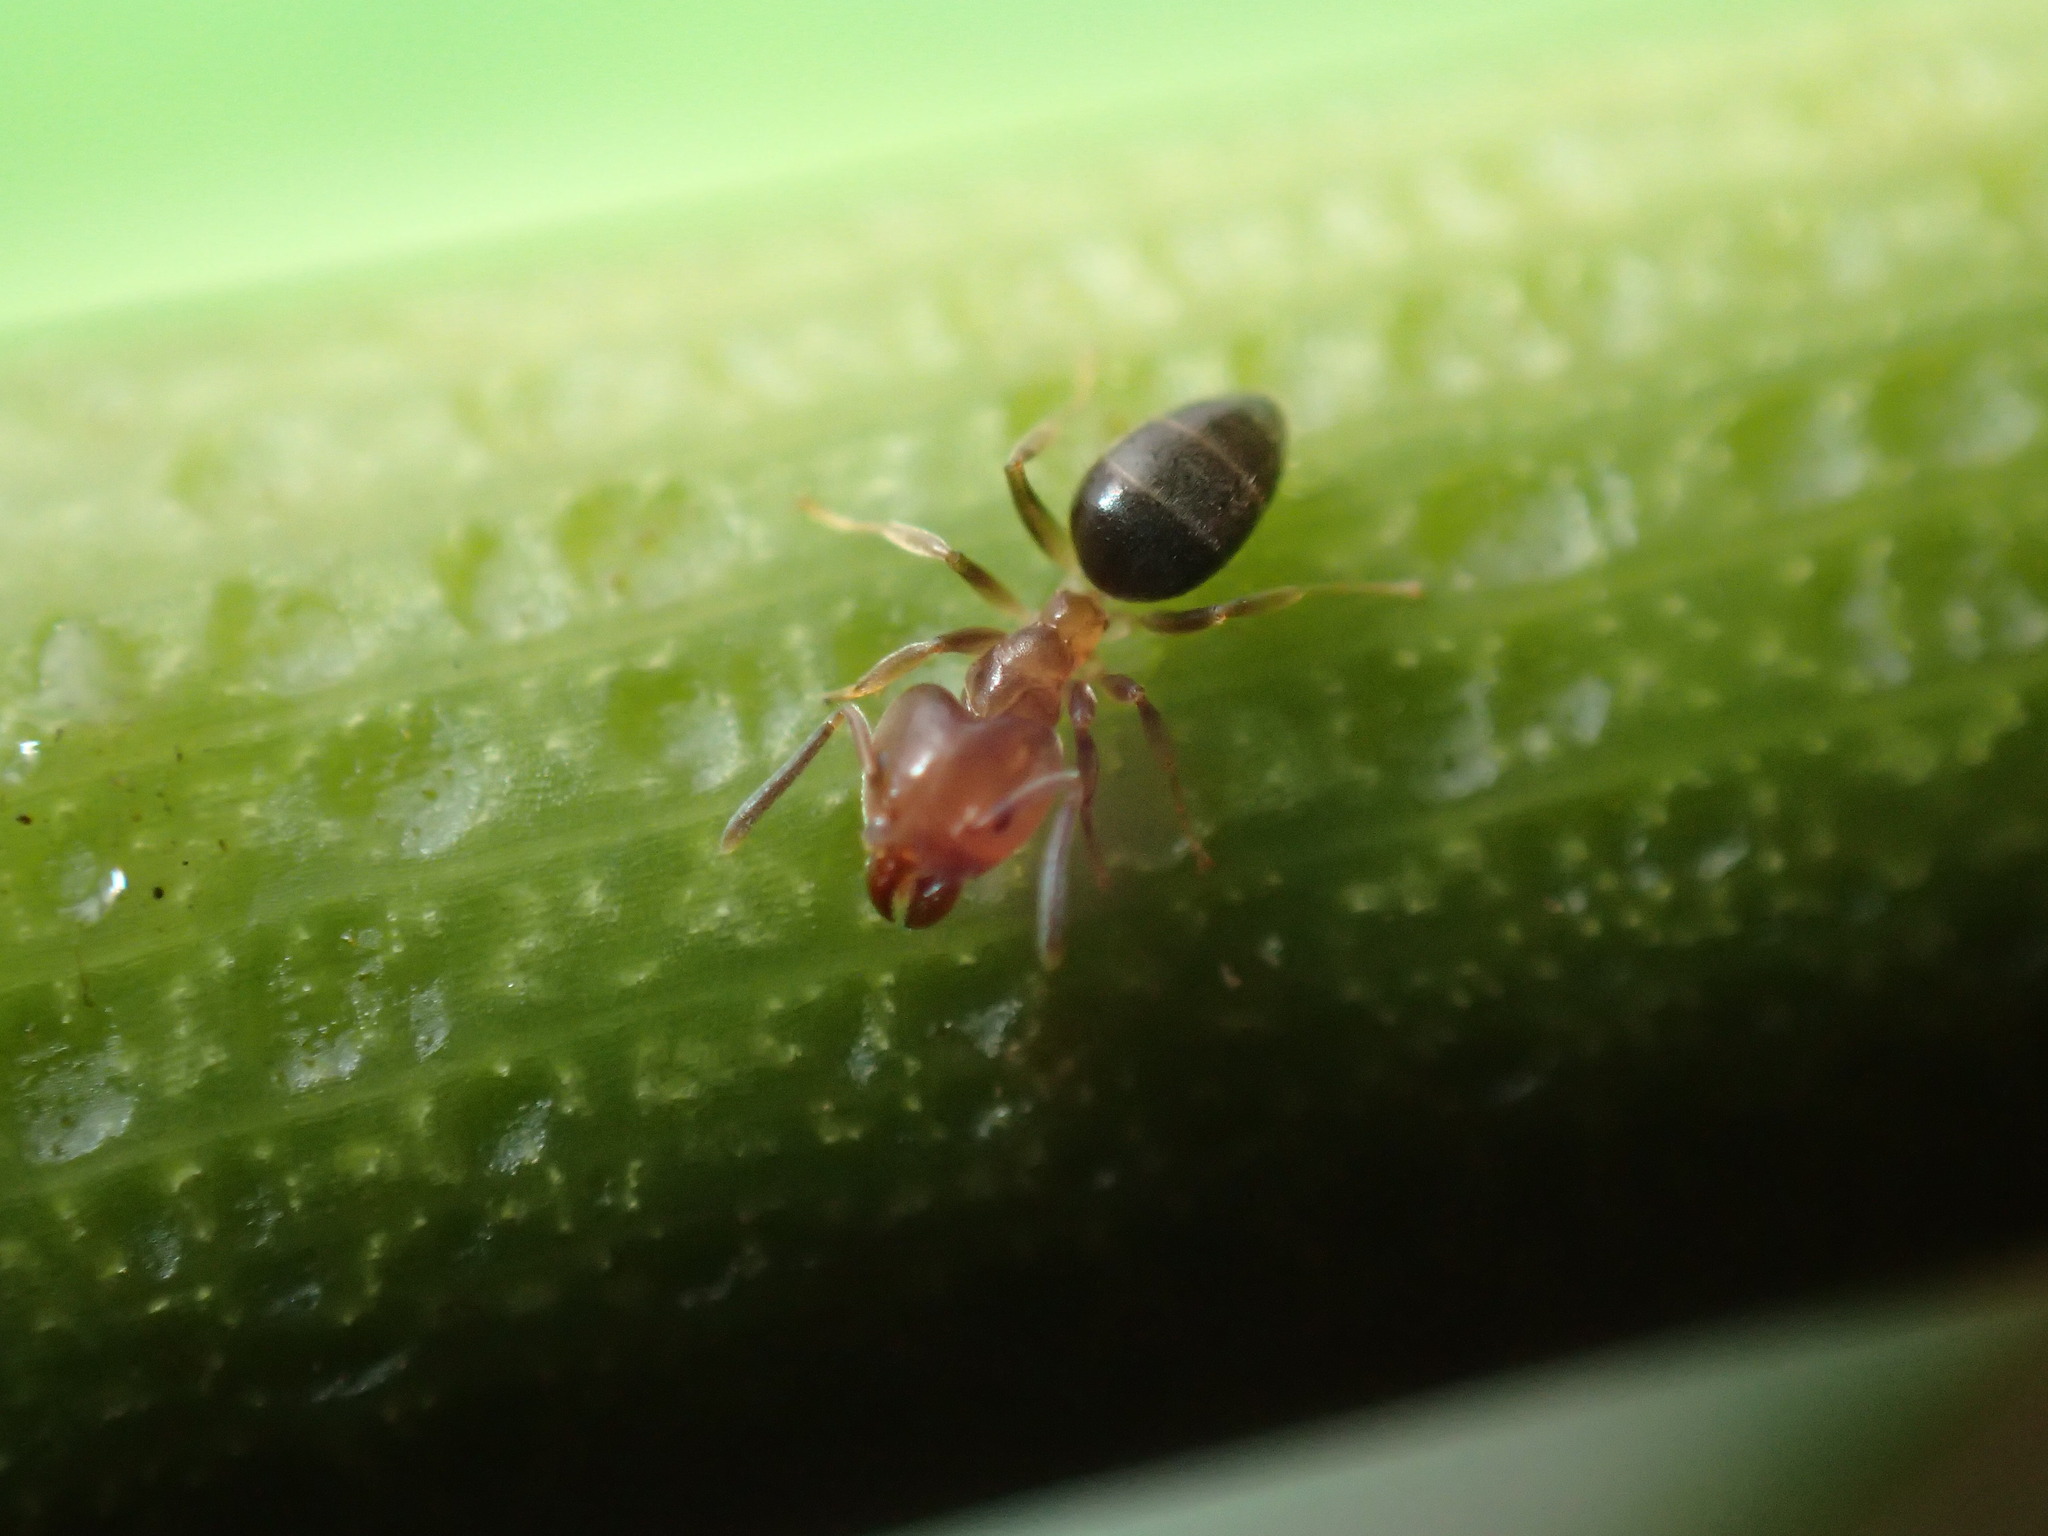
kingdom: Animalia
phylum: Arthropoda
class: Insecta
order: Hymenoptera
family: Formicidae
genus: Technomyrmex
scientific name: Technomyrmex laurenti
